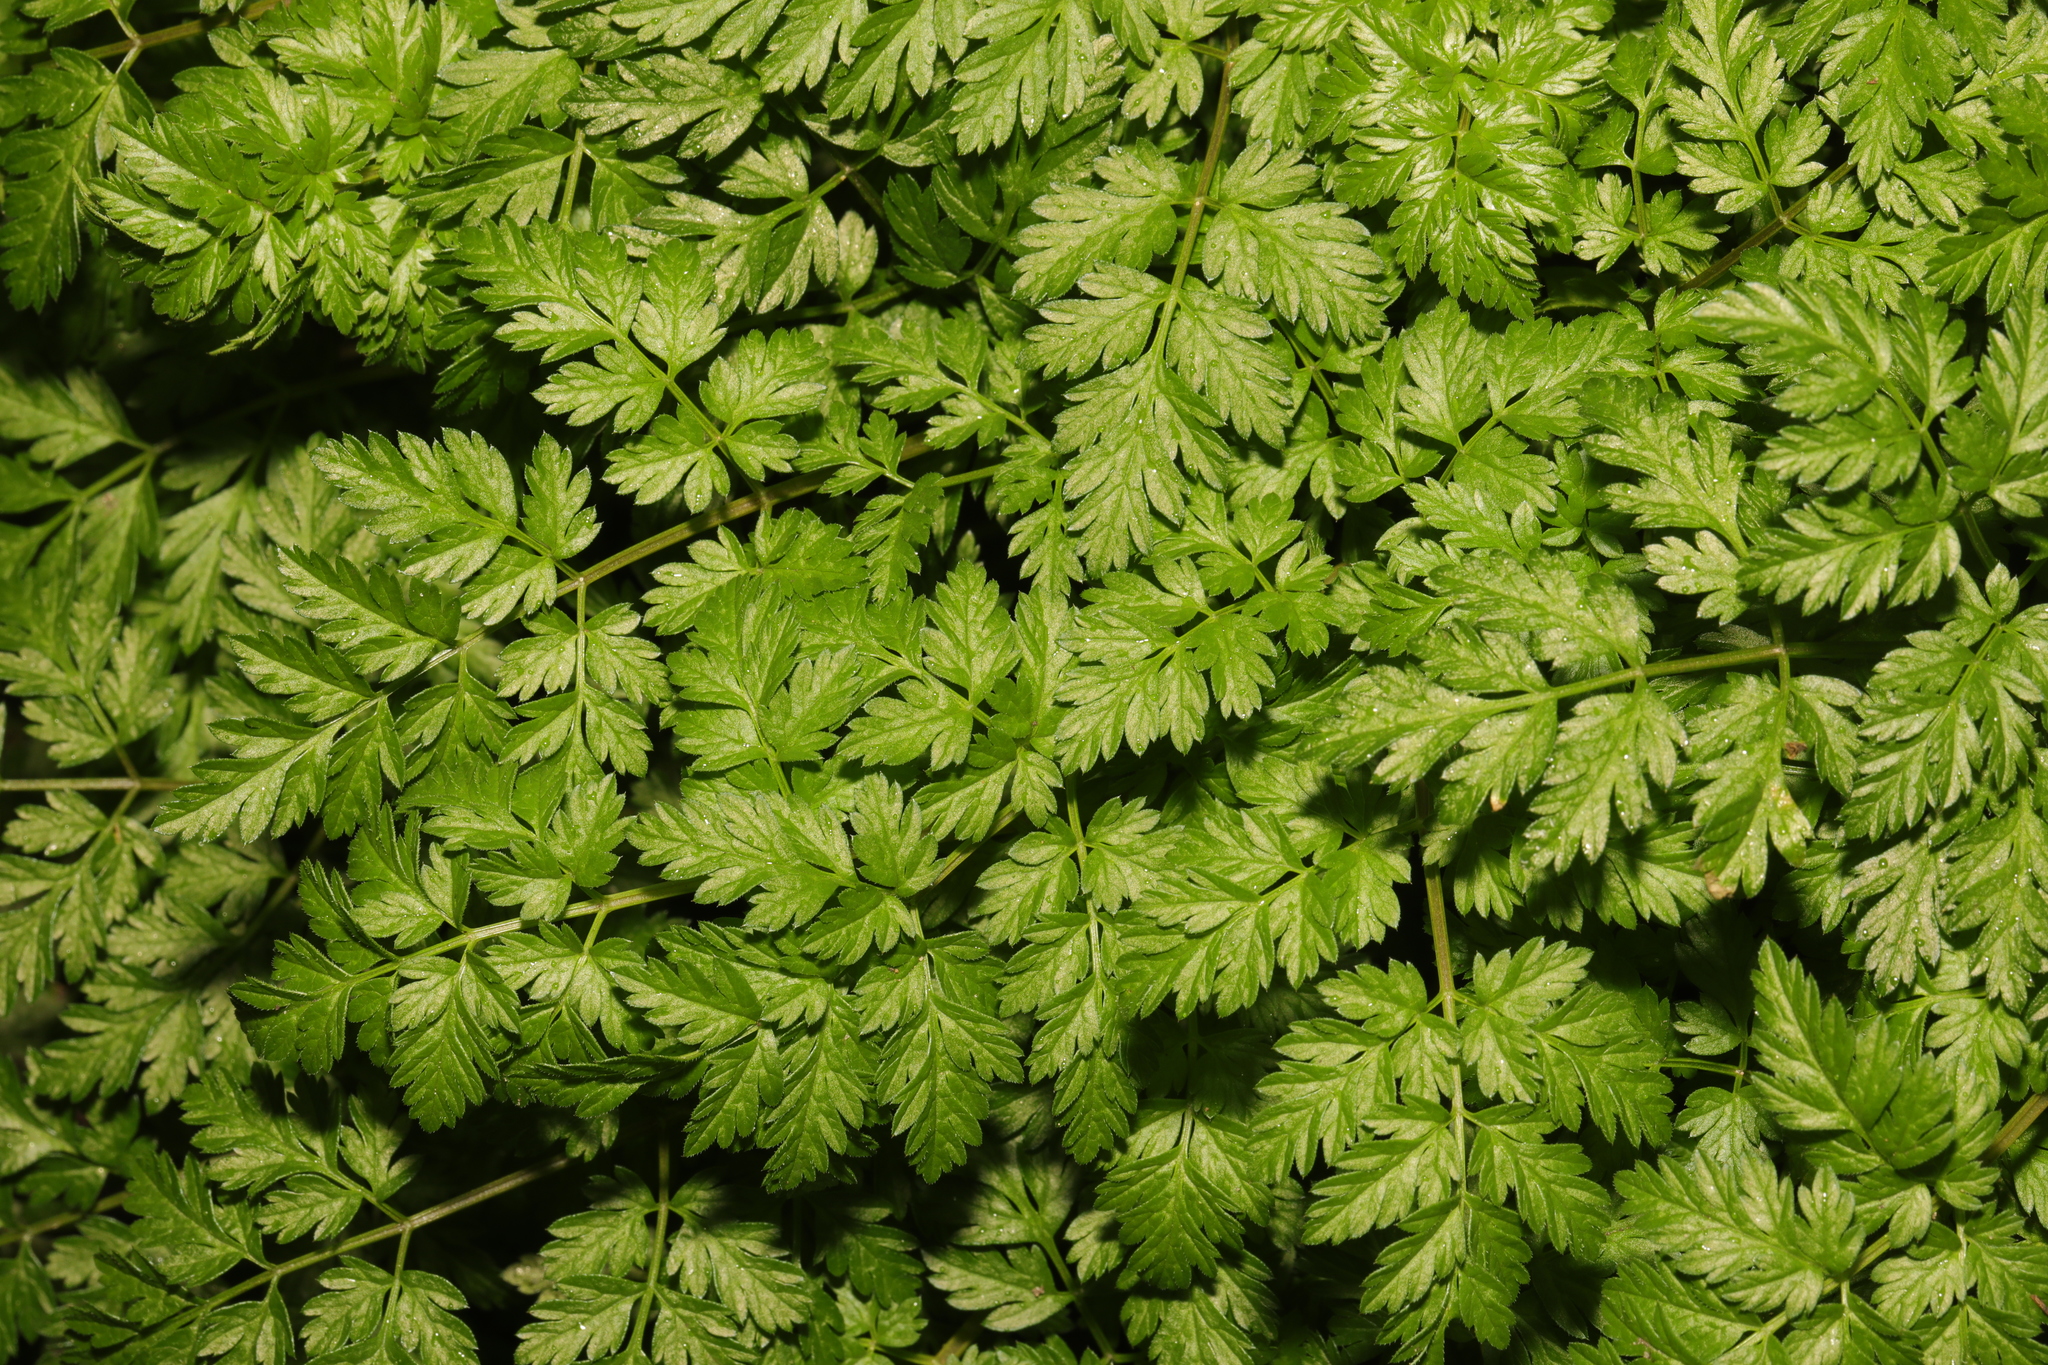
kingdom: Plantae
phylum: Tracheophyta
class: Magnoliopsida
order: Apiales
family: Apiaceae
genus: Anthriscus
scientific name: Anthriscus sylvestris
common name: Cow parsley
